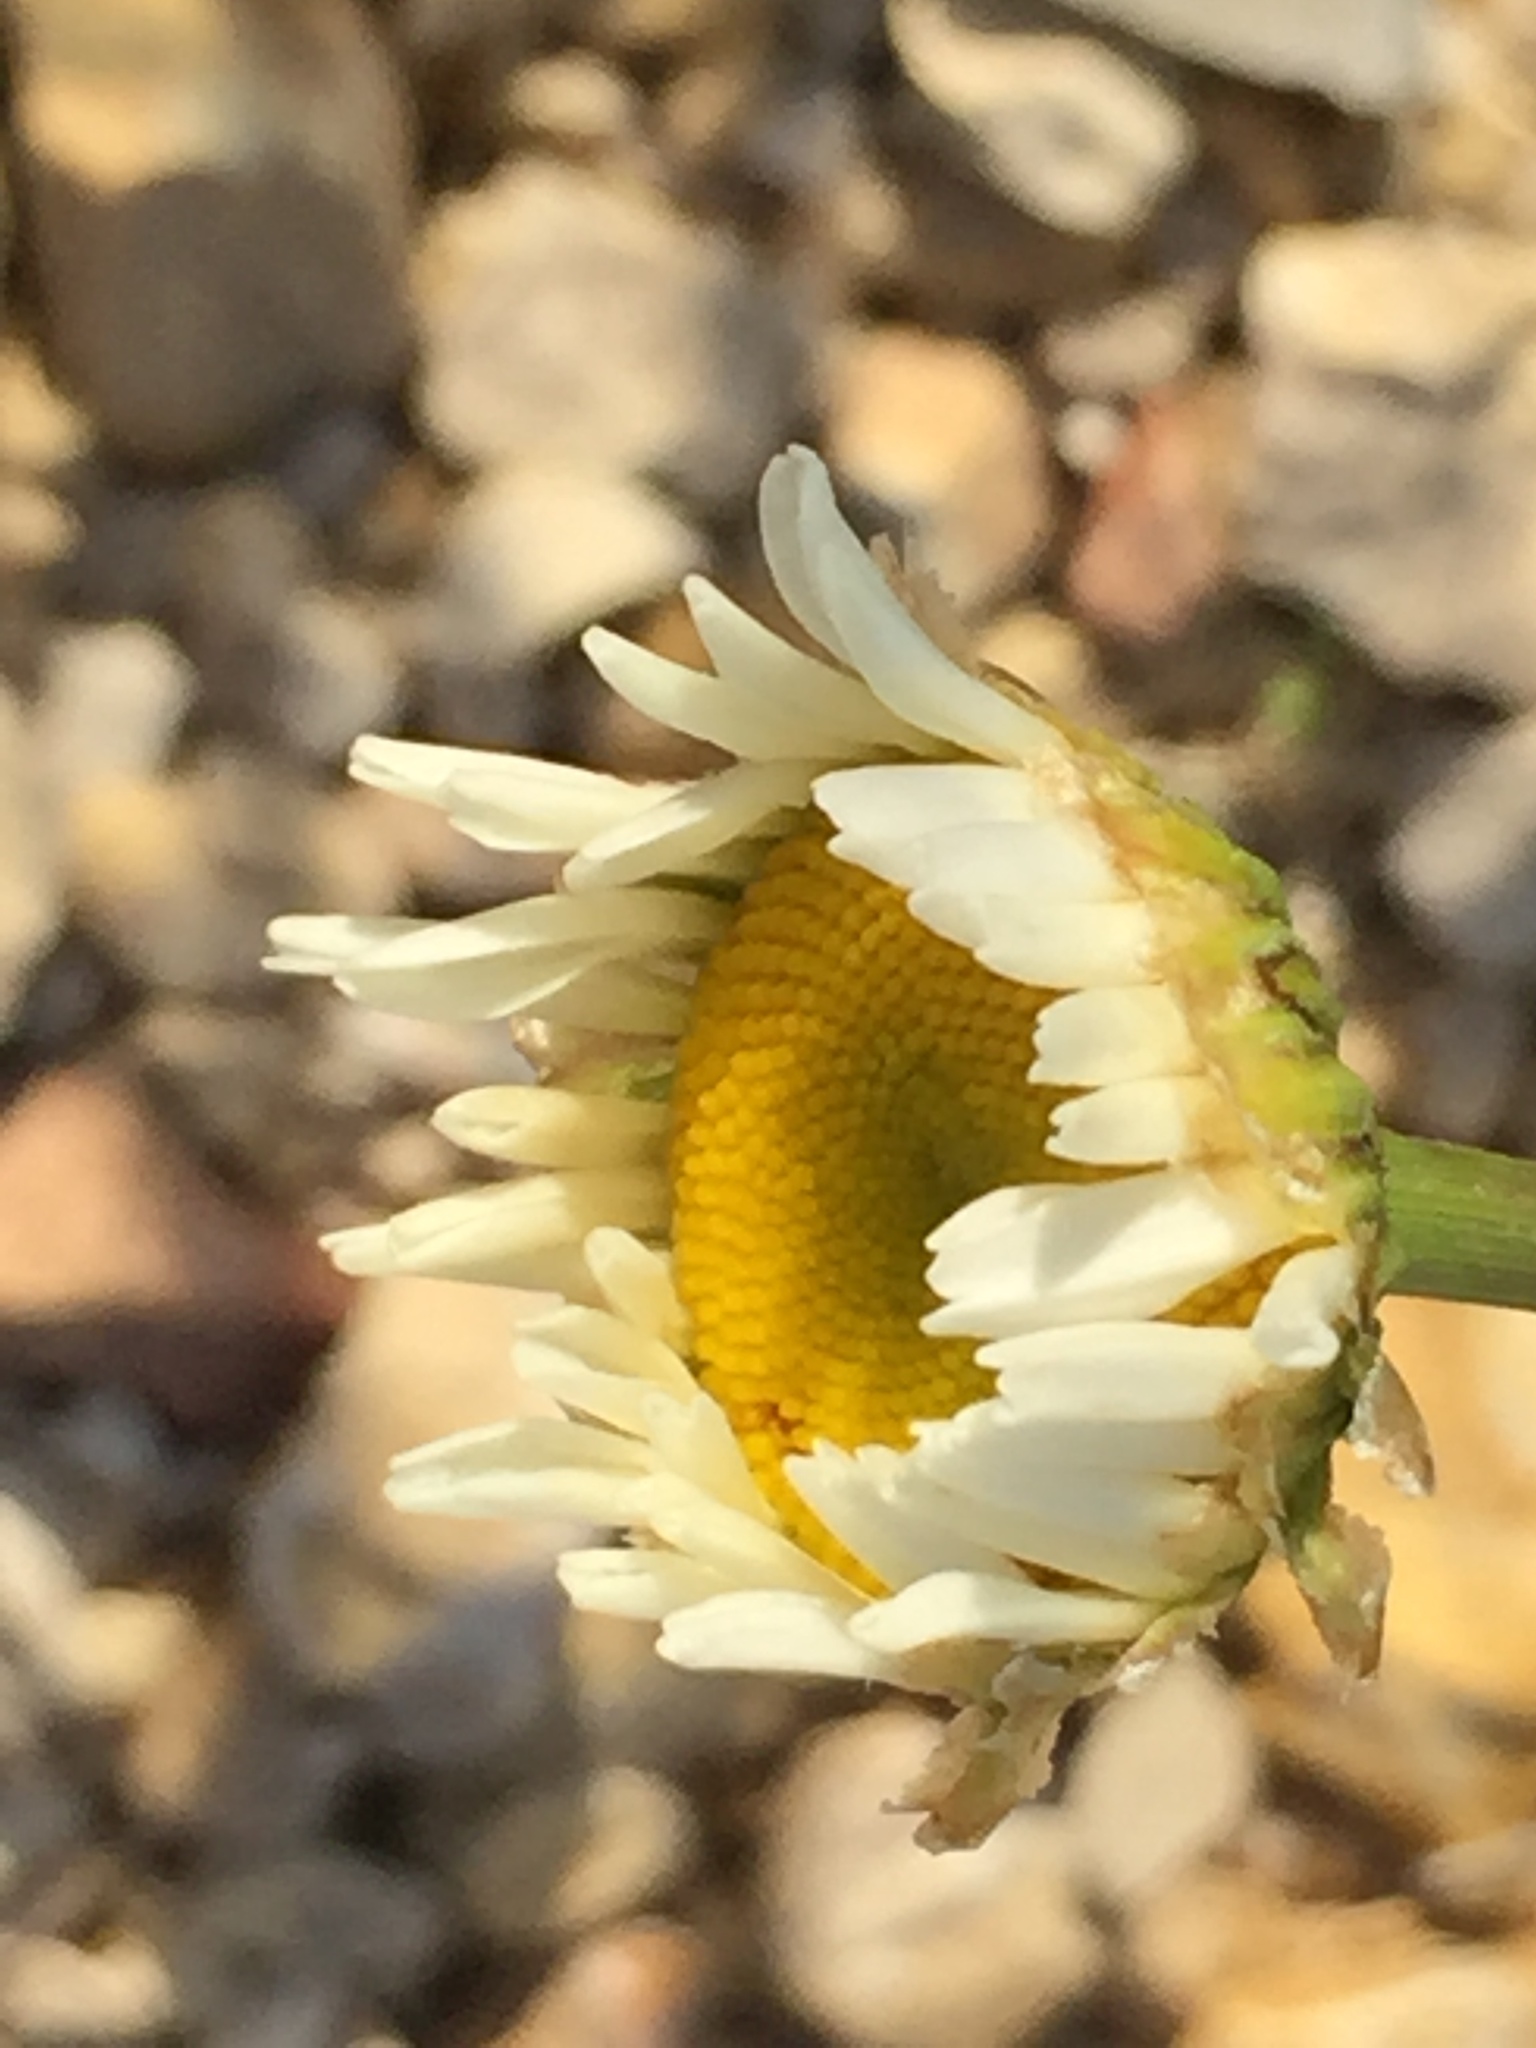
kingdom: Plantae
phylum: Tracheophyta
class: Magnoliopsida
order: Asterales
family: Asteraceae
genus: Leucanthemum
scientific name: Leucanthemum vulgare
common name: Oxeye daisy
